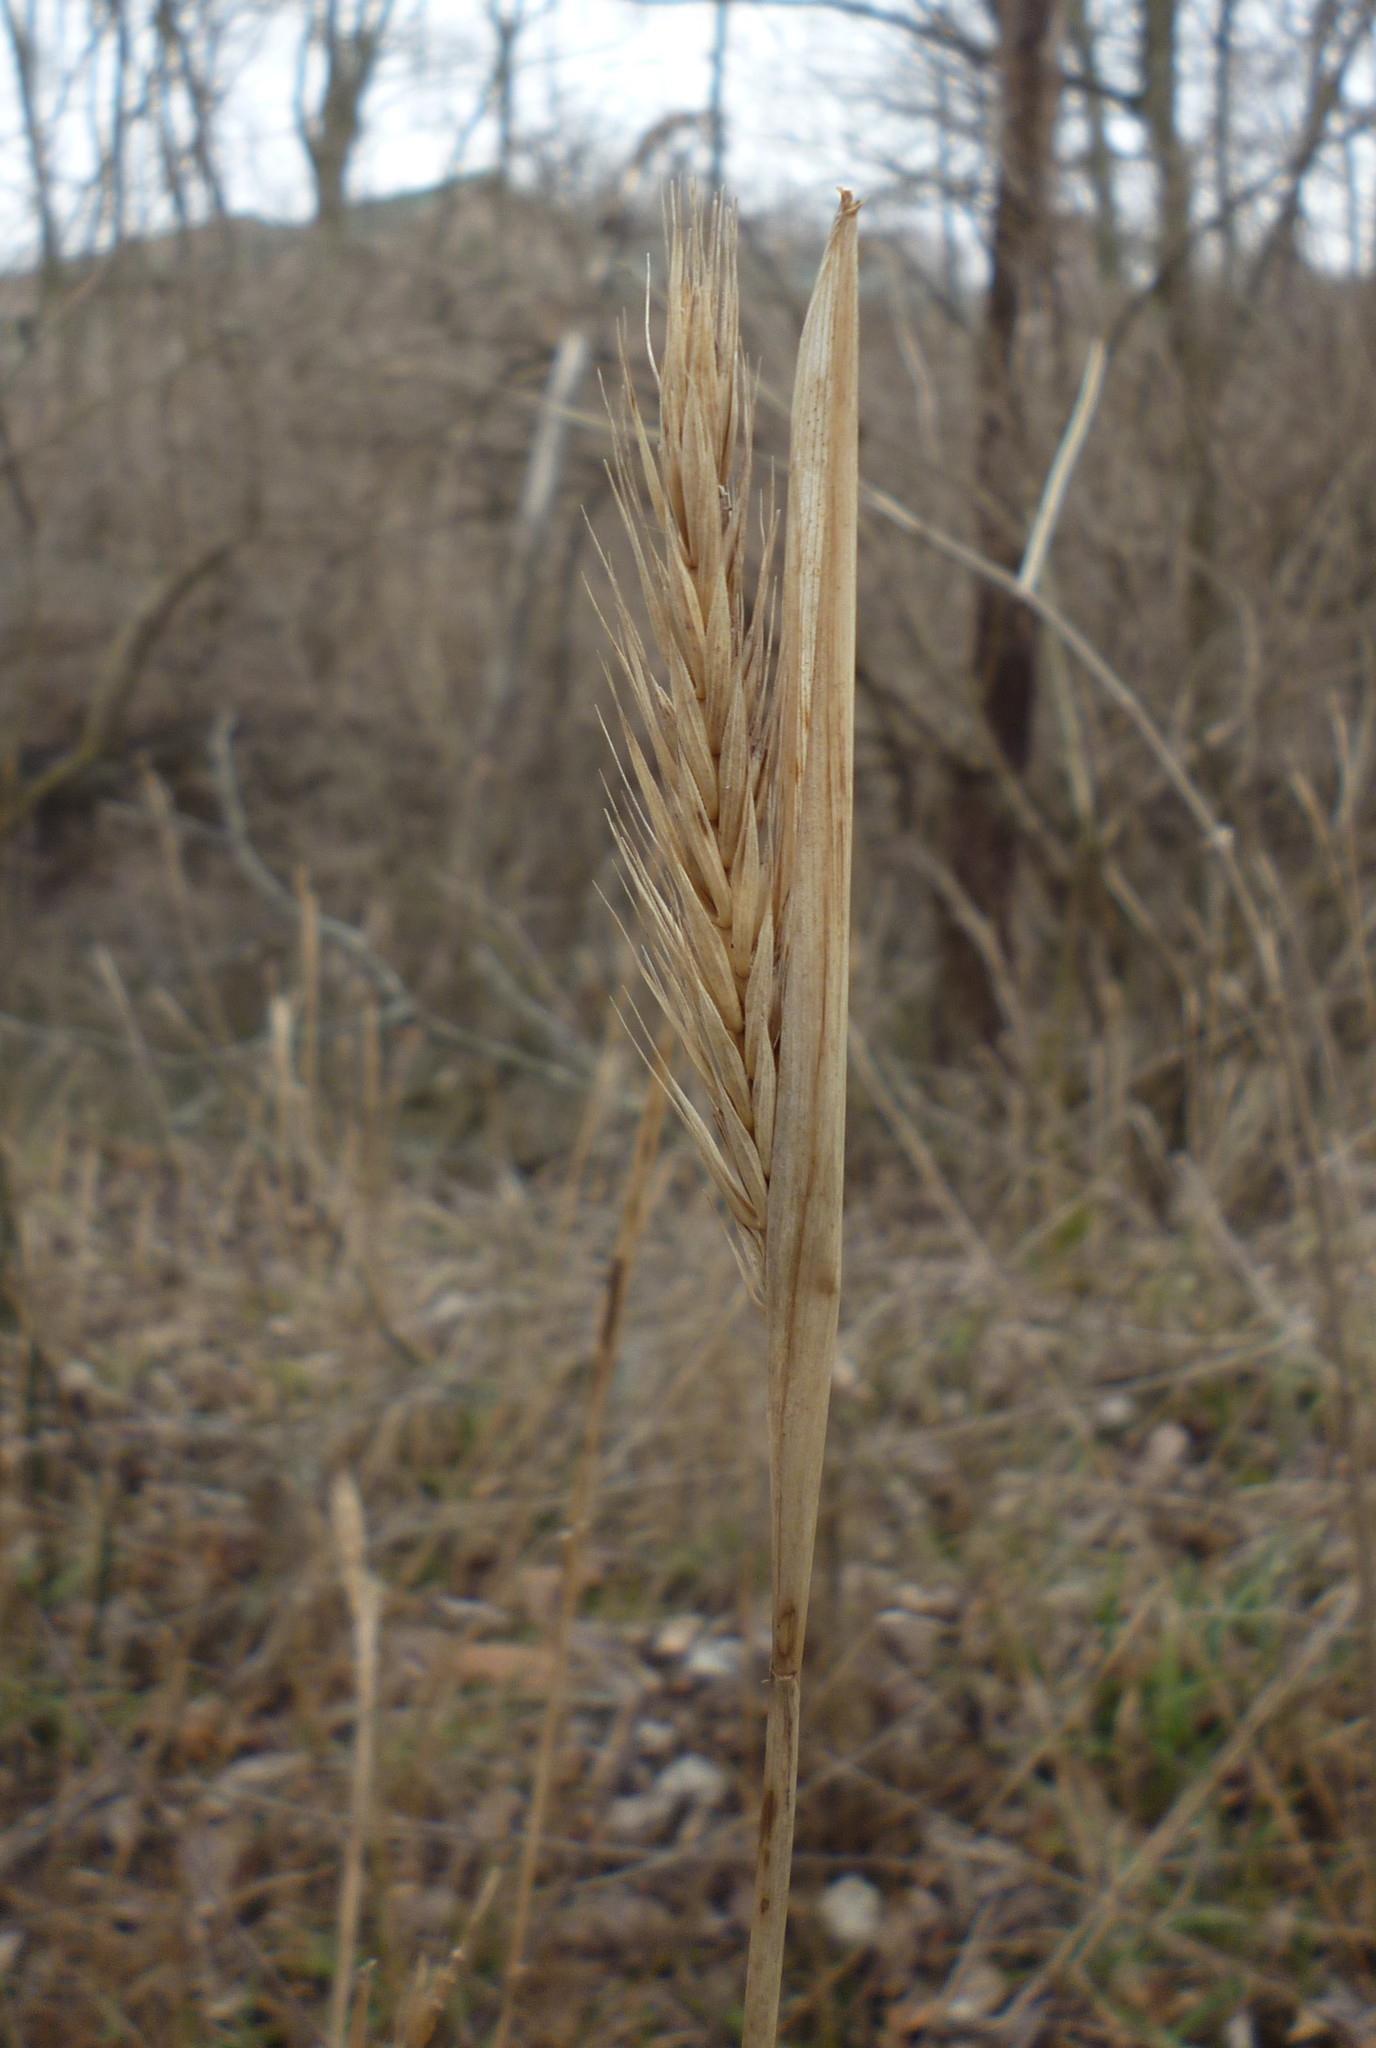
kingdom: Plantae
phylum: Tracheophyta
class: Liliopsida
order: Poales
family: Poaceae
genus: Elymus
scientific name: Elymus virginicus
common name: Common eastern wildrye
